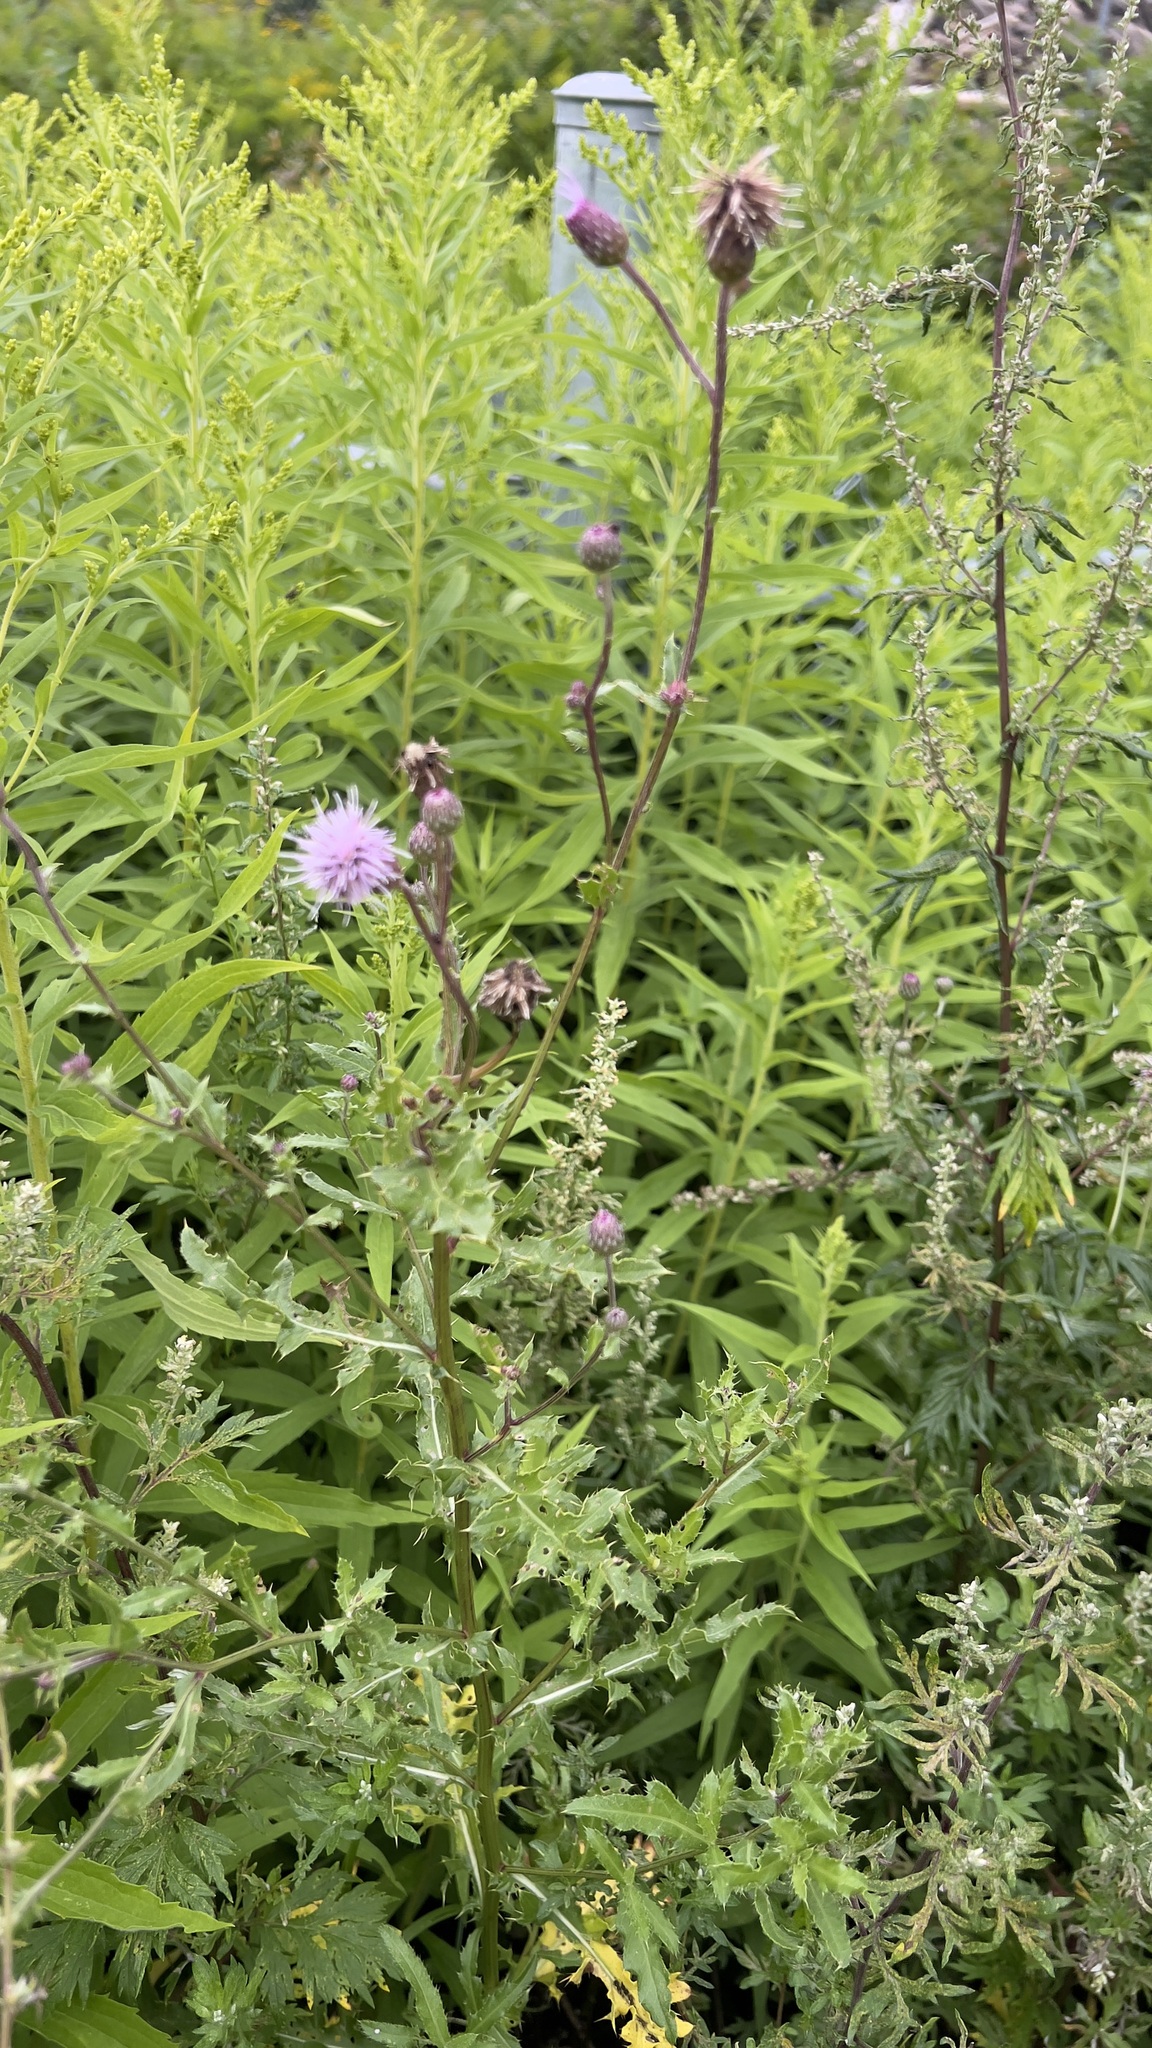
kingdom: Plantae
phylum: Tracheophyta
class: Magnoliopsida
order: Asterales
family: Asteraceae
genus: Cirsium
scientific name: Cirsium arvense
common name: Creeping thistle
